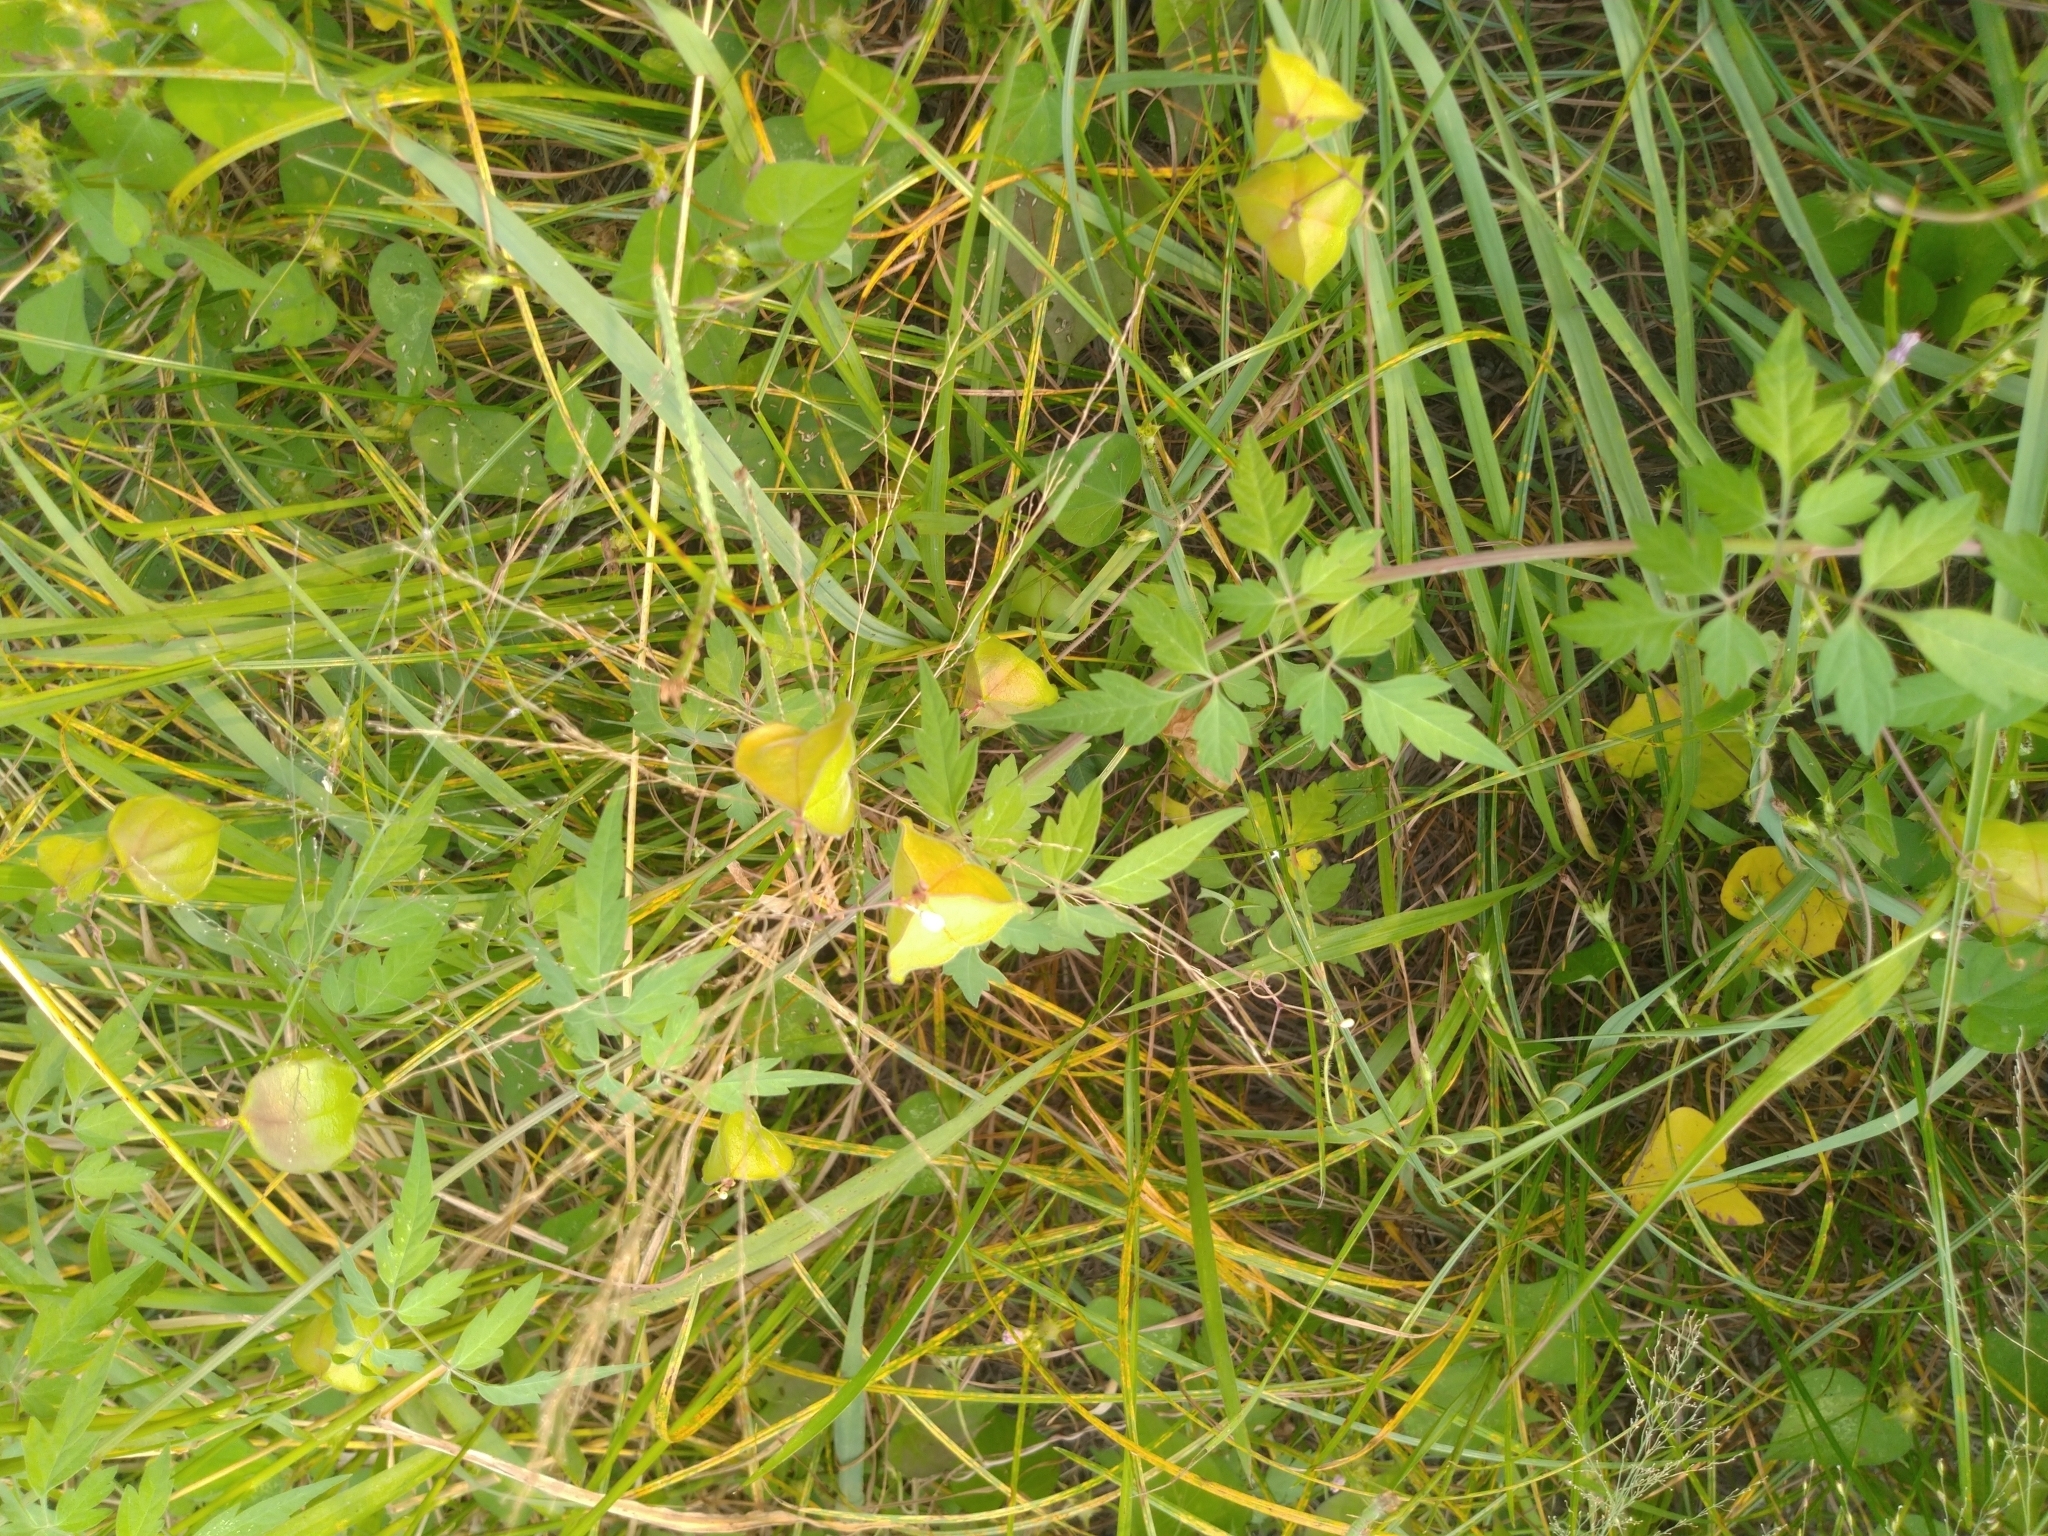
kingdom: Plantae
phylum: Tracheophyta
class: Magnoliopsida
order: Sapindales
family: Sapindaceae
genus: Cardiospermum
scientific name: Cardiospermum halicacabum
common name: Balloon vine
